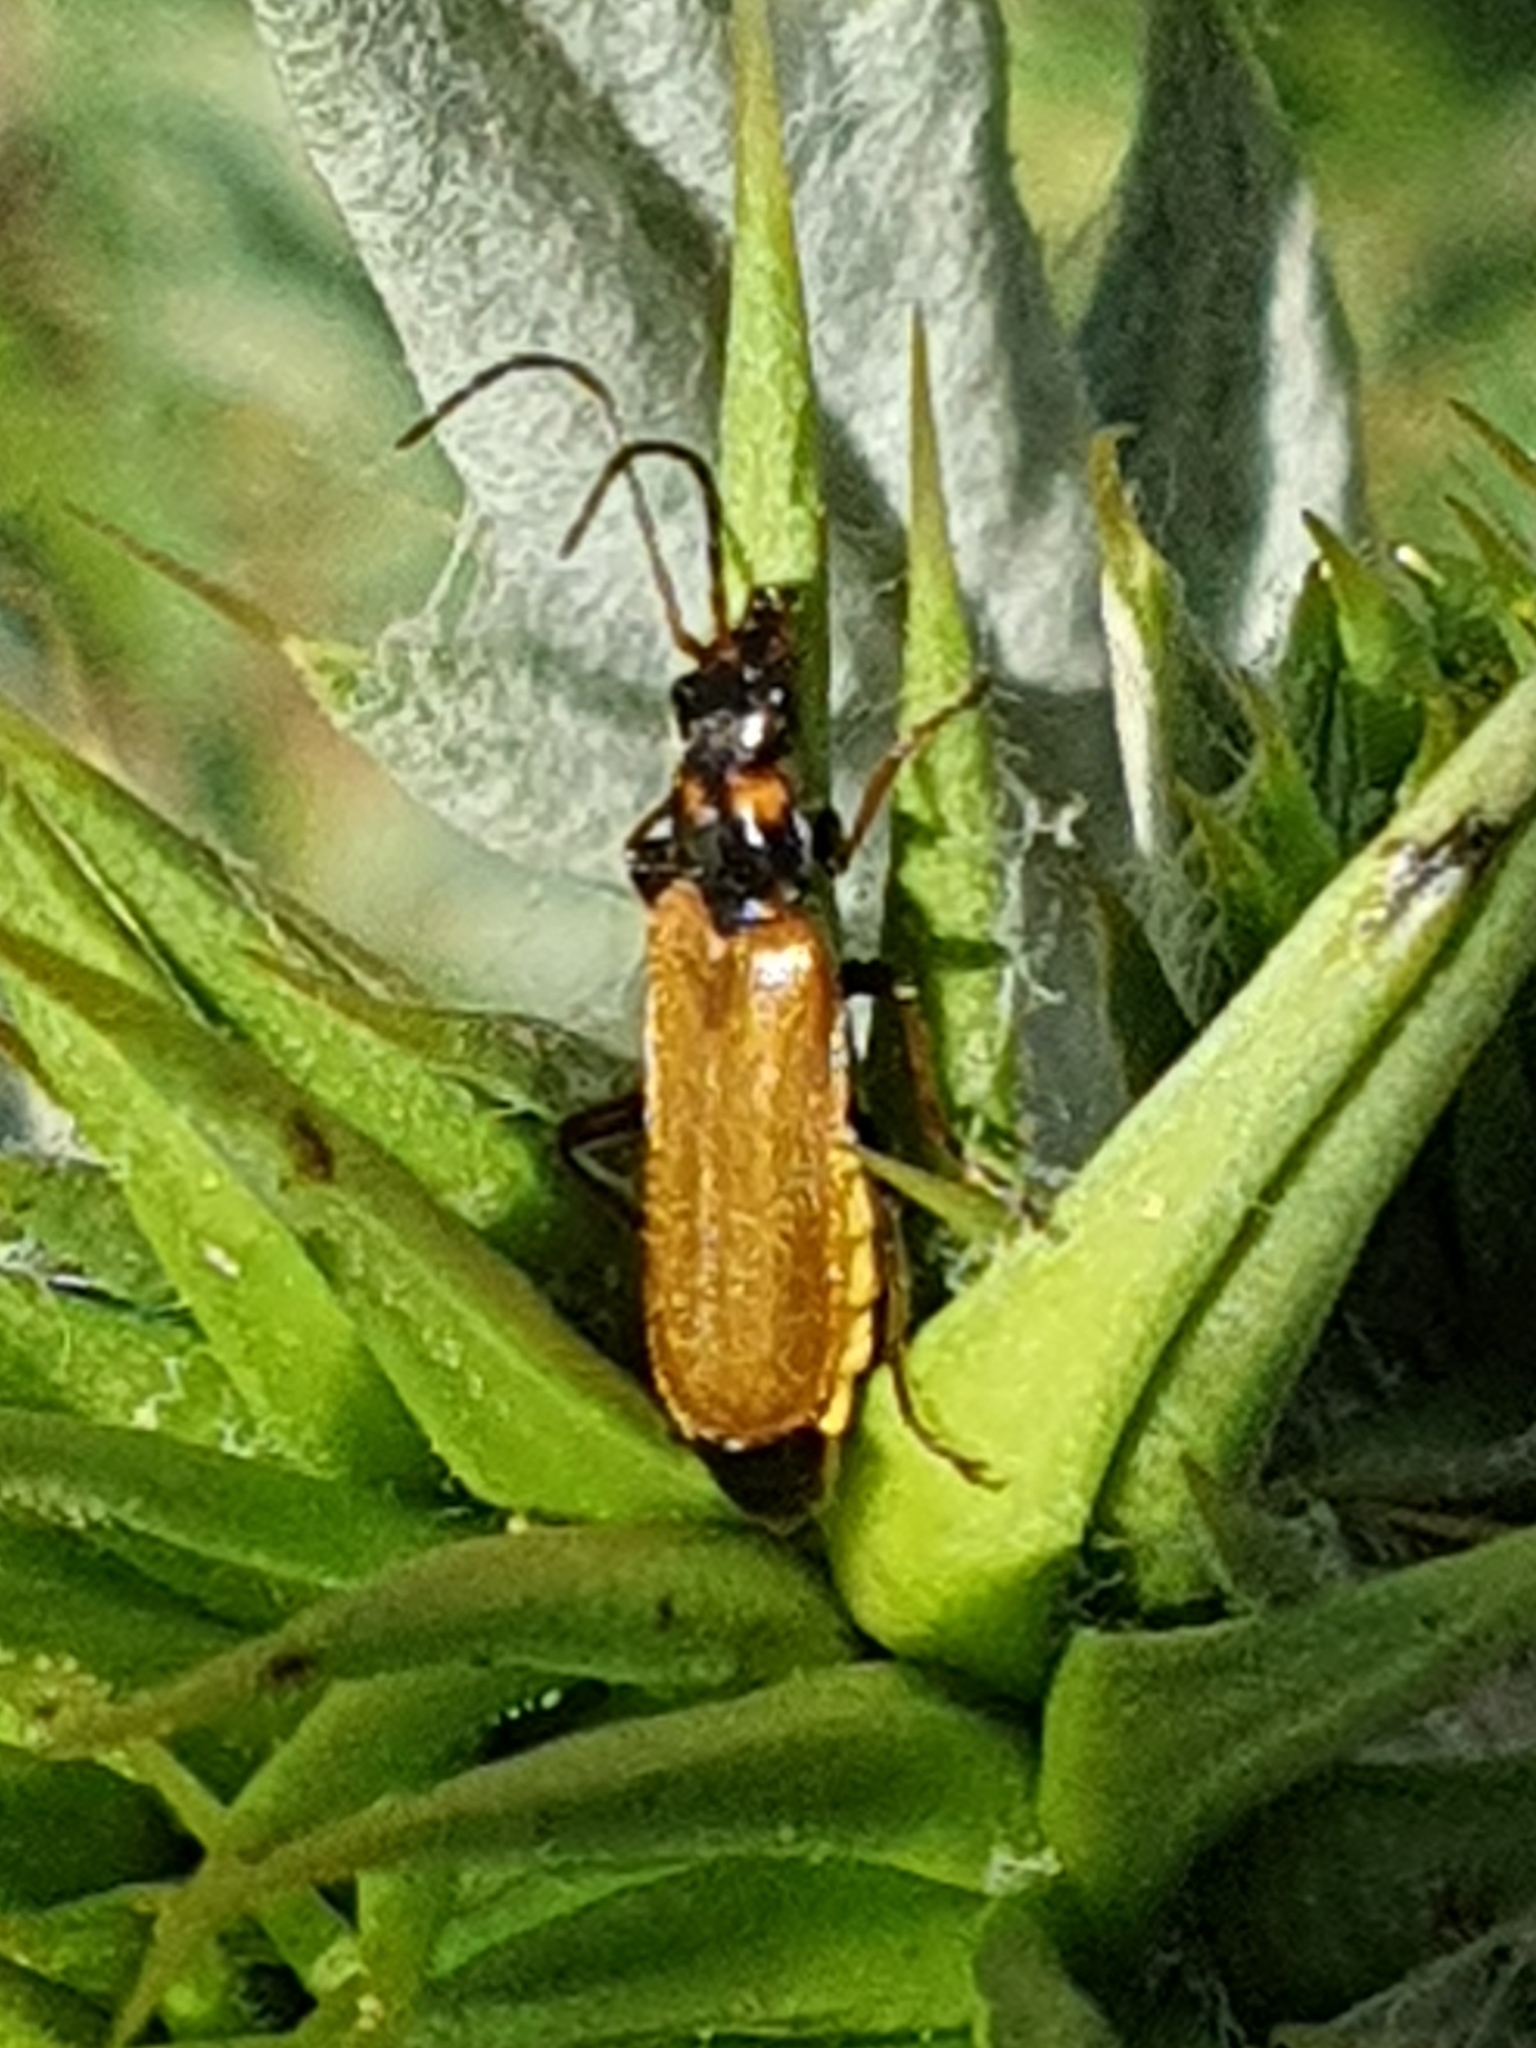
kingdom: Animalia
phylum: Arthropoda
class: Insecta
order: Coleoptera
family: Cantharidae
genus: Rhagonycha
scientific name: Rhagonycha nigripes
